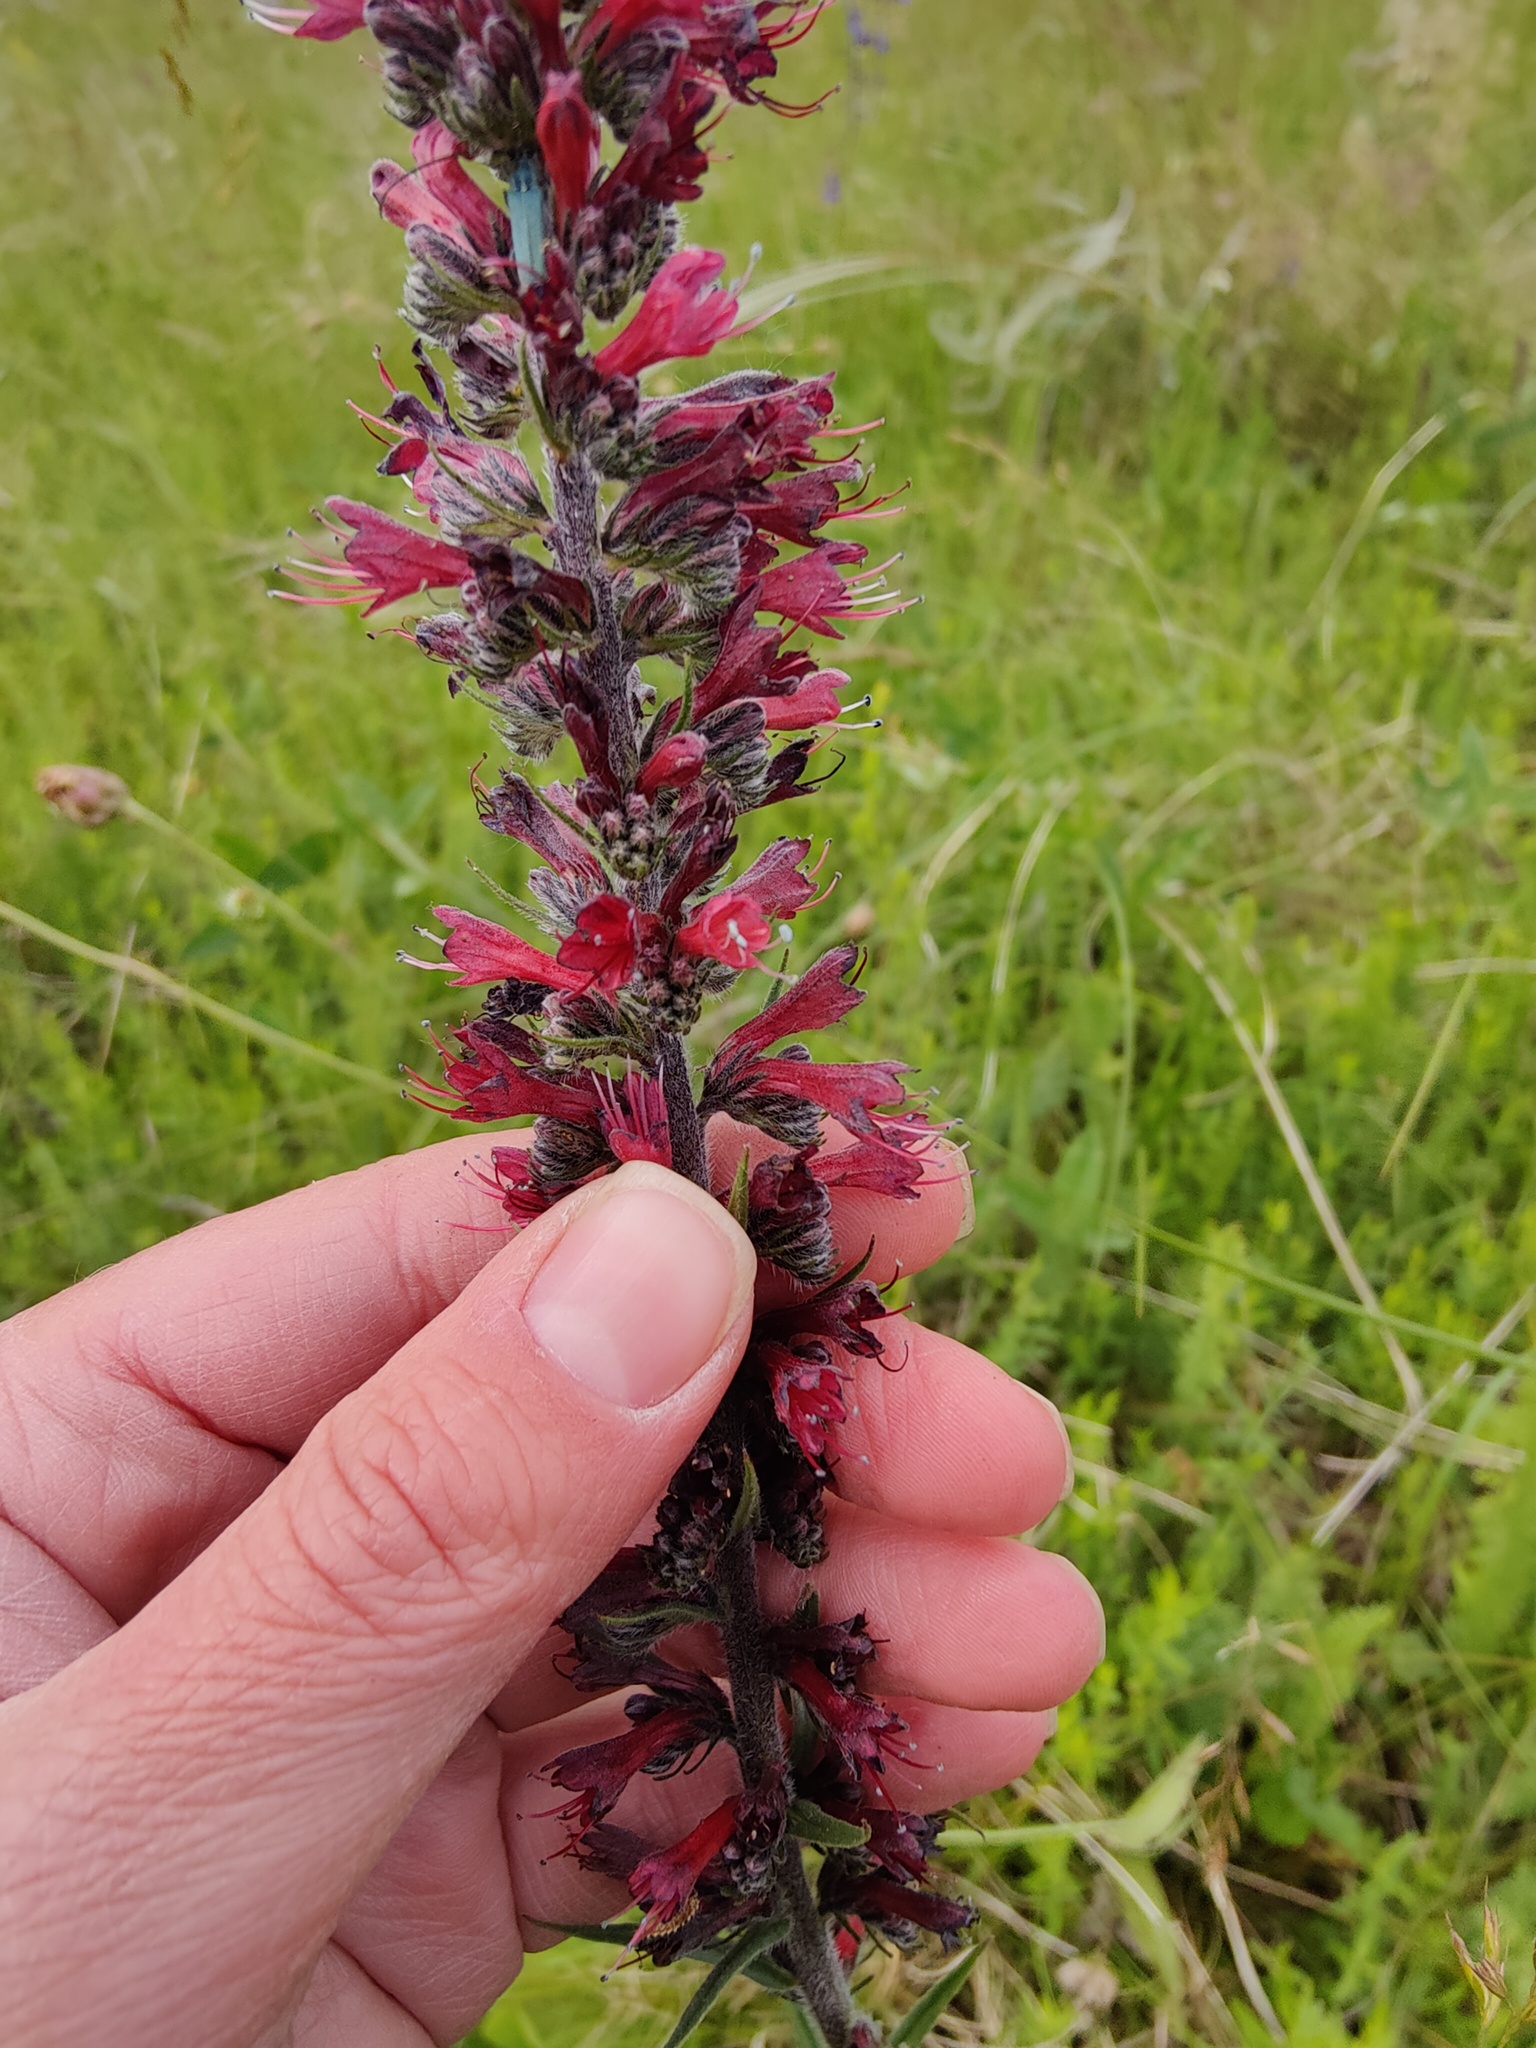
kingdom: Plantae
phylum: Tracheophyta
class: Magnoliopsida
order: Boraginales
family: Boraginaceae
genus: Pontechium
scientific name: Pontechium maculatum
